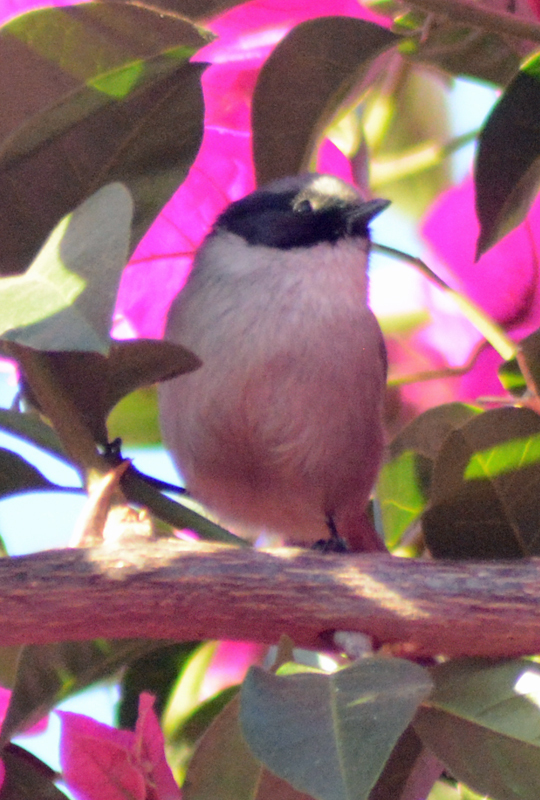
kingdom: Animalia
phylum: Chordata
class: Aves
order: Passeriformes
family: Aegithalidae
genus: Psaltriparus
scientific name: Psaltriparus minimus
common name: American bushtit
